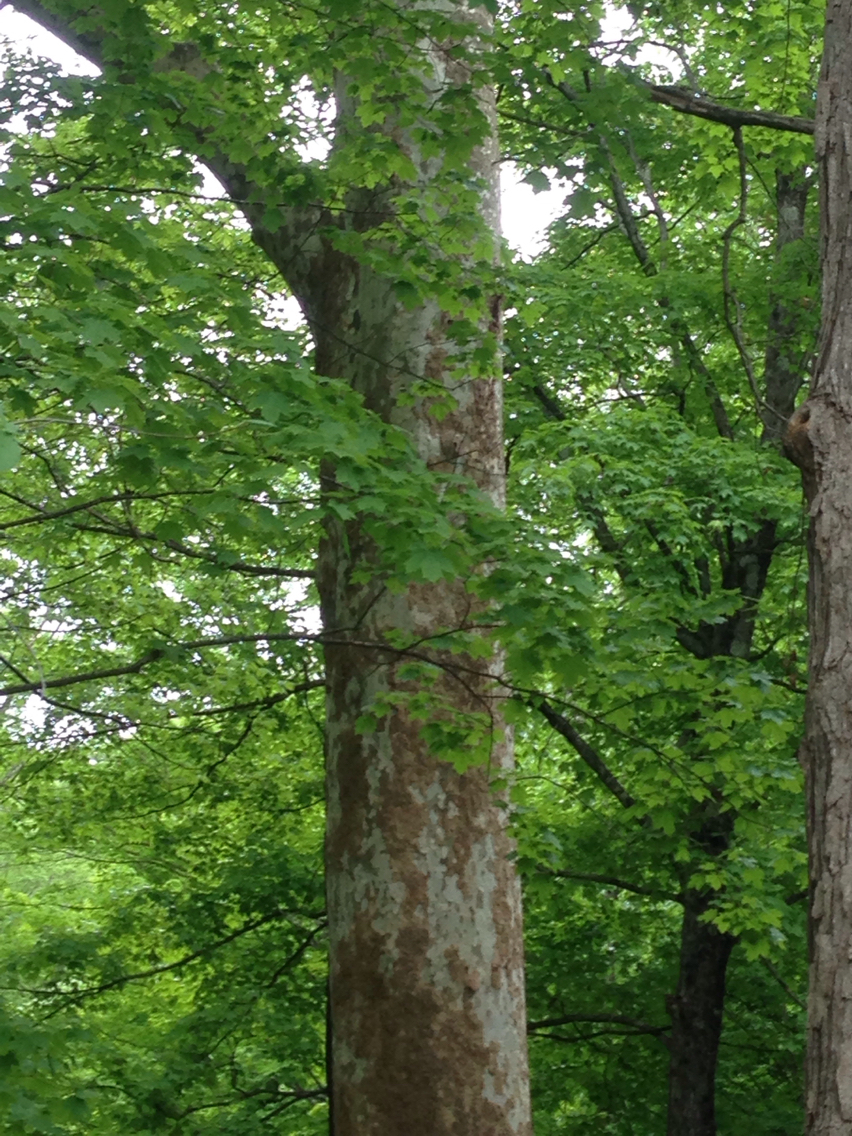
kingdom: Plantae
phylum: Tracheophyta
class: Magnoliopsida
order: Proteales
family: Platanaceae
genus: Platanus
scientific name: Platanus occidentalis
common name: American sycamore
